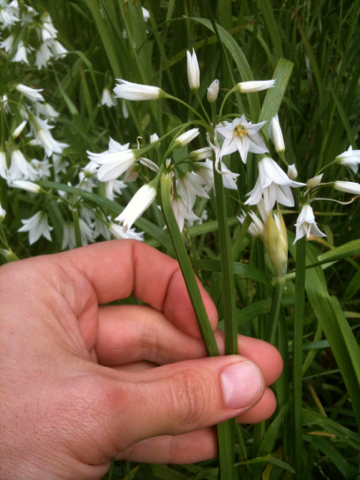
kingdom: Plantae
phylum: Tracheophyta
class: Liliopsida
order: Asparagales
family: Amaryllidaceae
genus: Allium
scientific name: Allium triquetrum
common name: Three-cornered garlic
